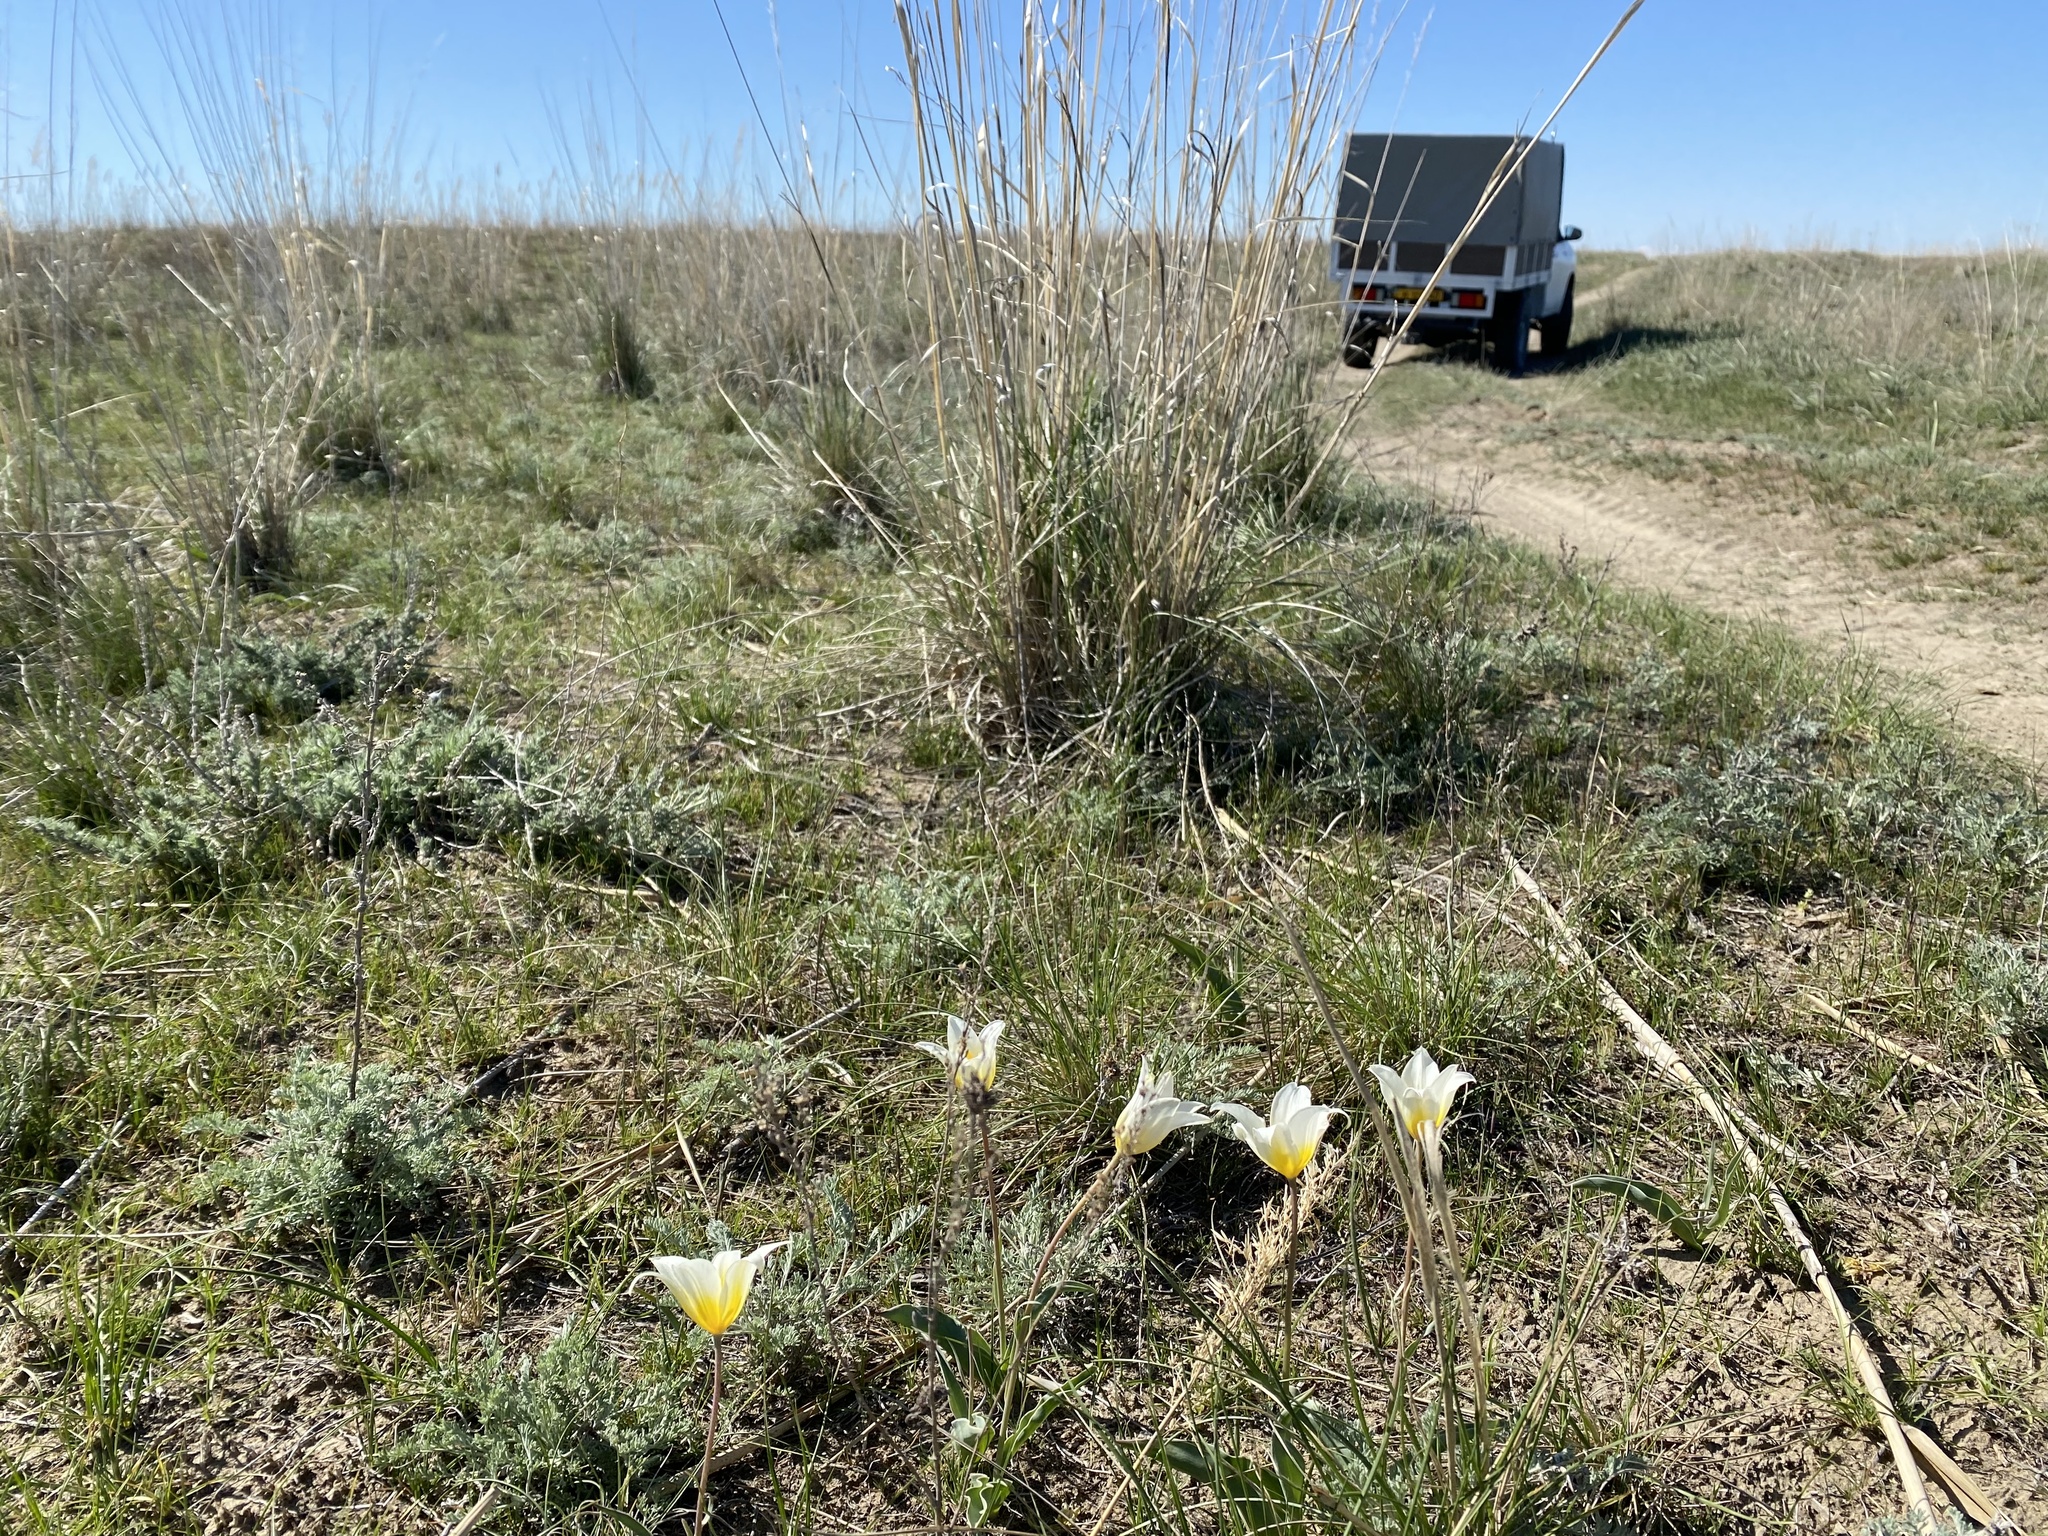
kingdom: Plantae
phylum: Tracheophyta
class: Liliopsida
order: Liliales
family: Liliaceae
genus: Tulipa
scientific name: Tulipa biflora
